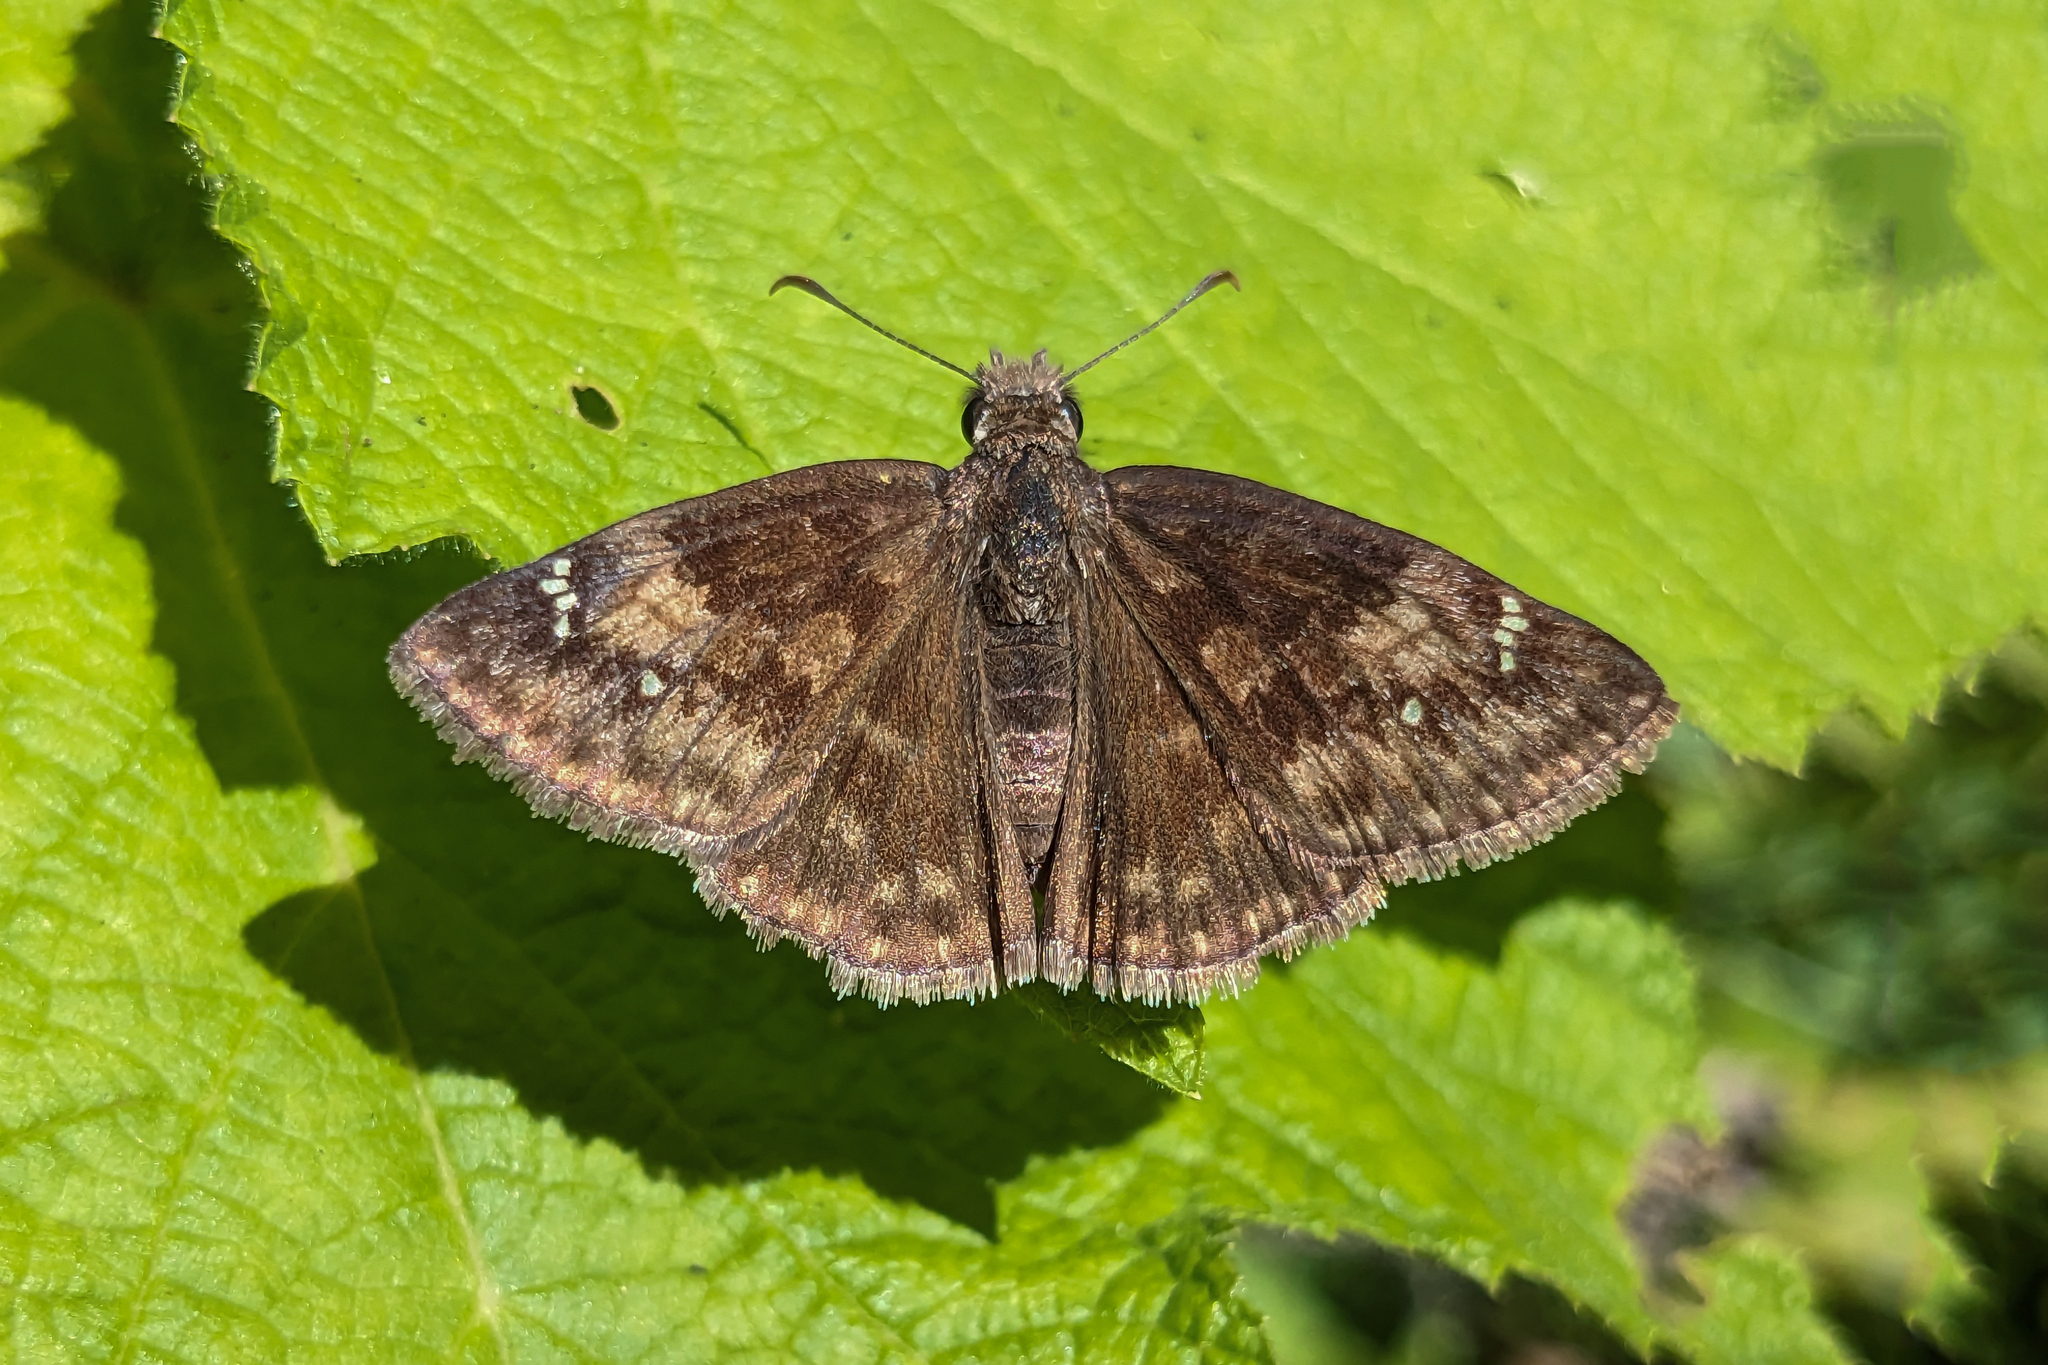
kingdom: Animalia
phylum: Arthropoda
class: Insecta
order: Lepidoptera
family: Hesperiidae
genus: Erynnis
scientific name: Erynnis baptisiae
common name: Wild indigo duskywing
